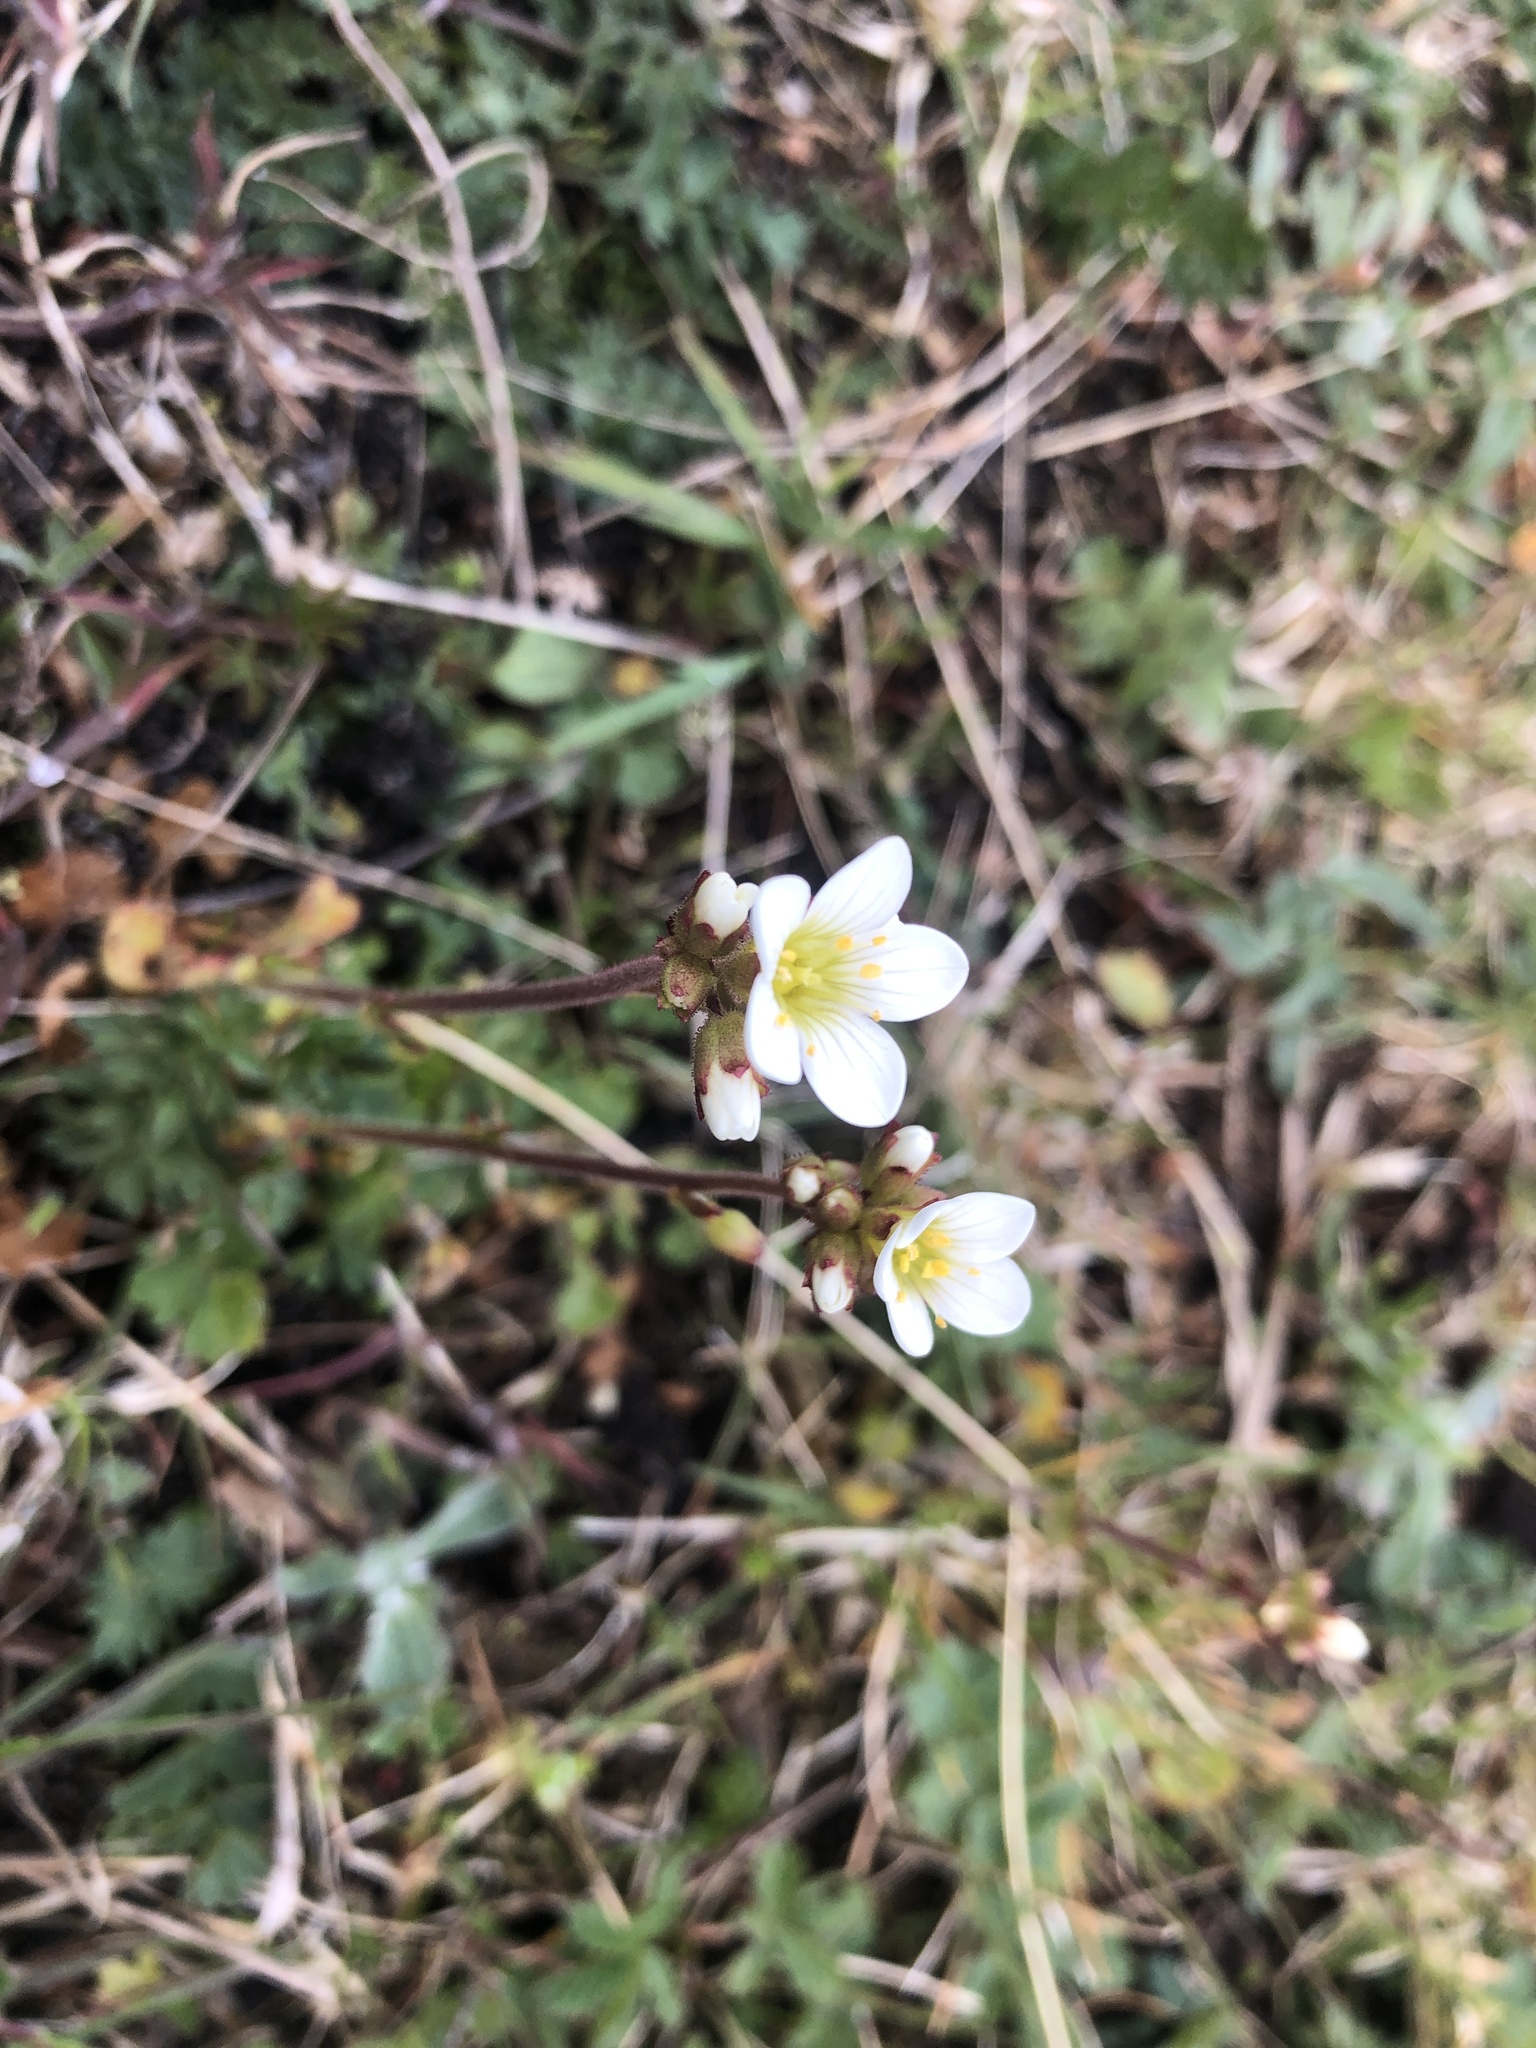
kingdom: Plantae
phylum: Tracheophyta
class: Magnoliopsida
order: Saxifragales
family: Saxifragaceae
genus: Saxifraga
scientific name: Saxifraga granulata
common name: Meadow saxifrage
